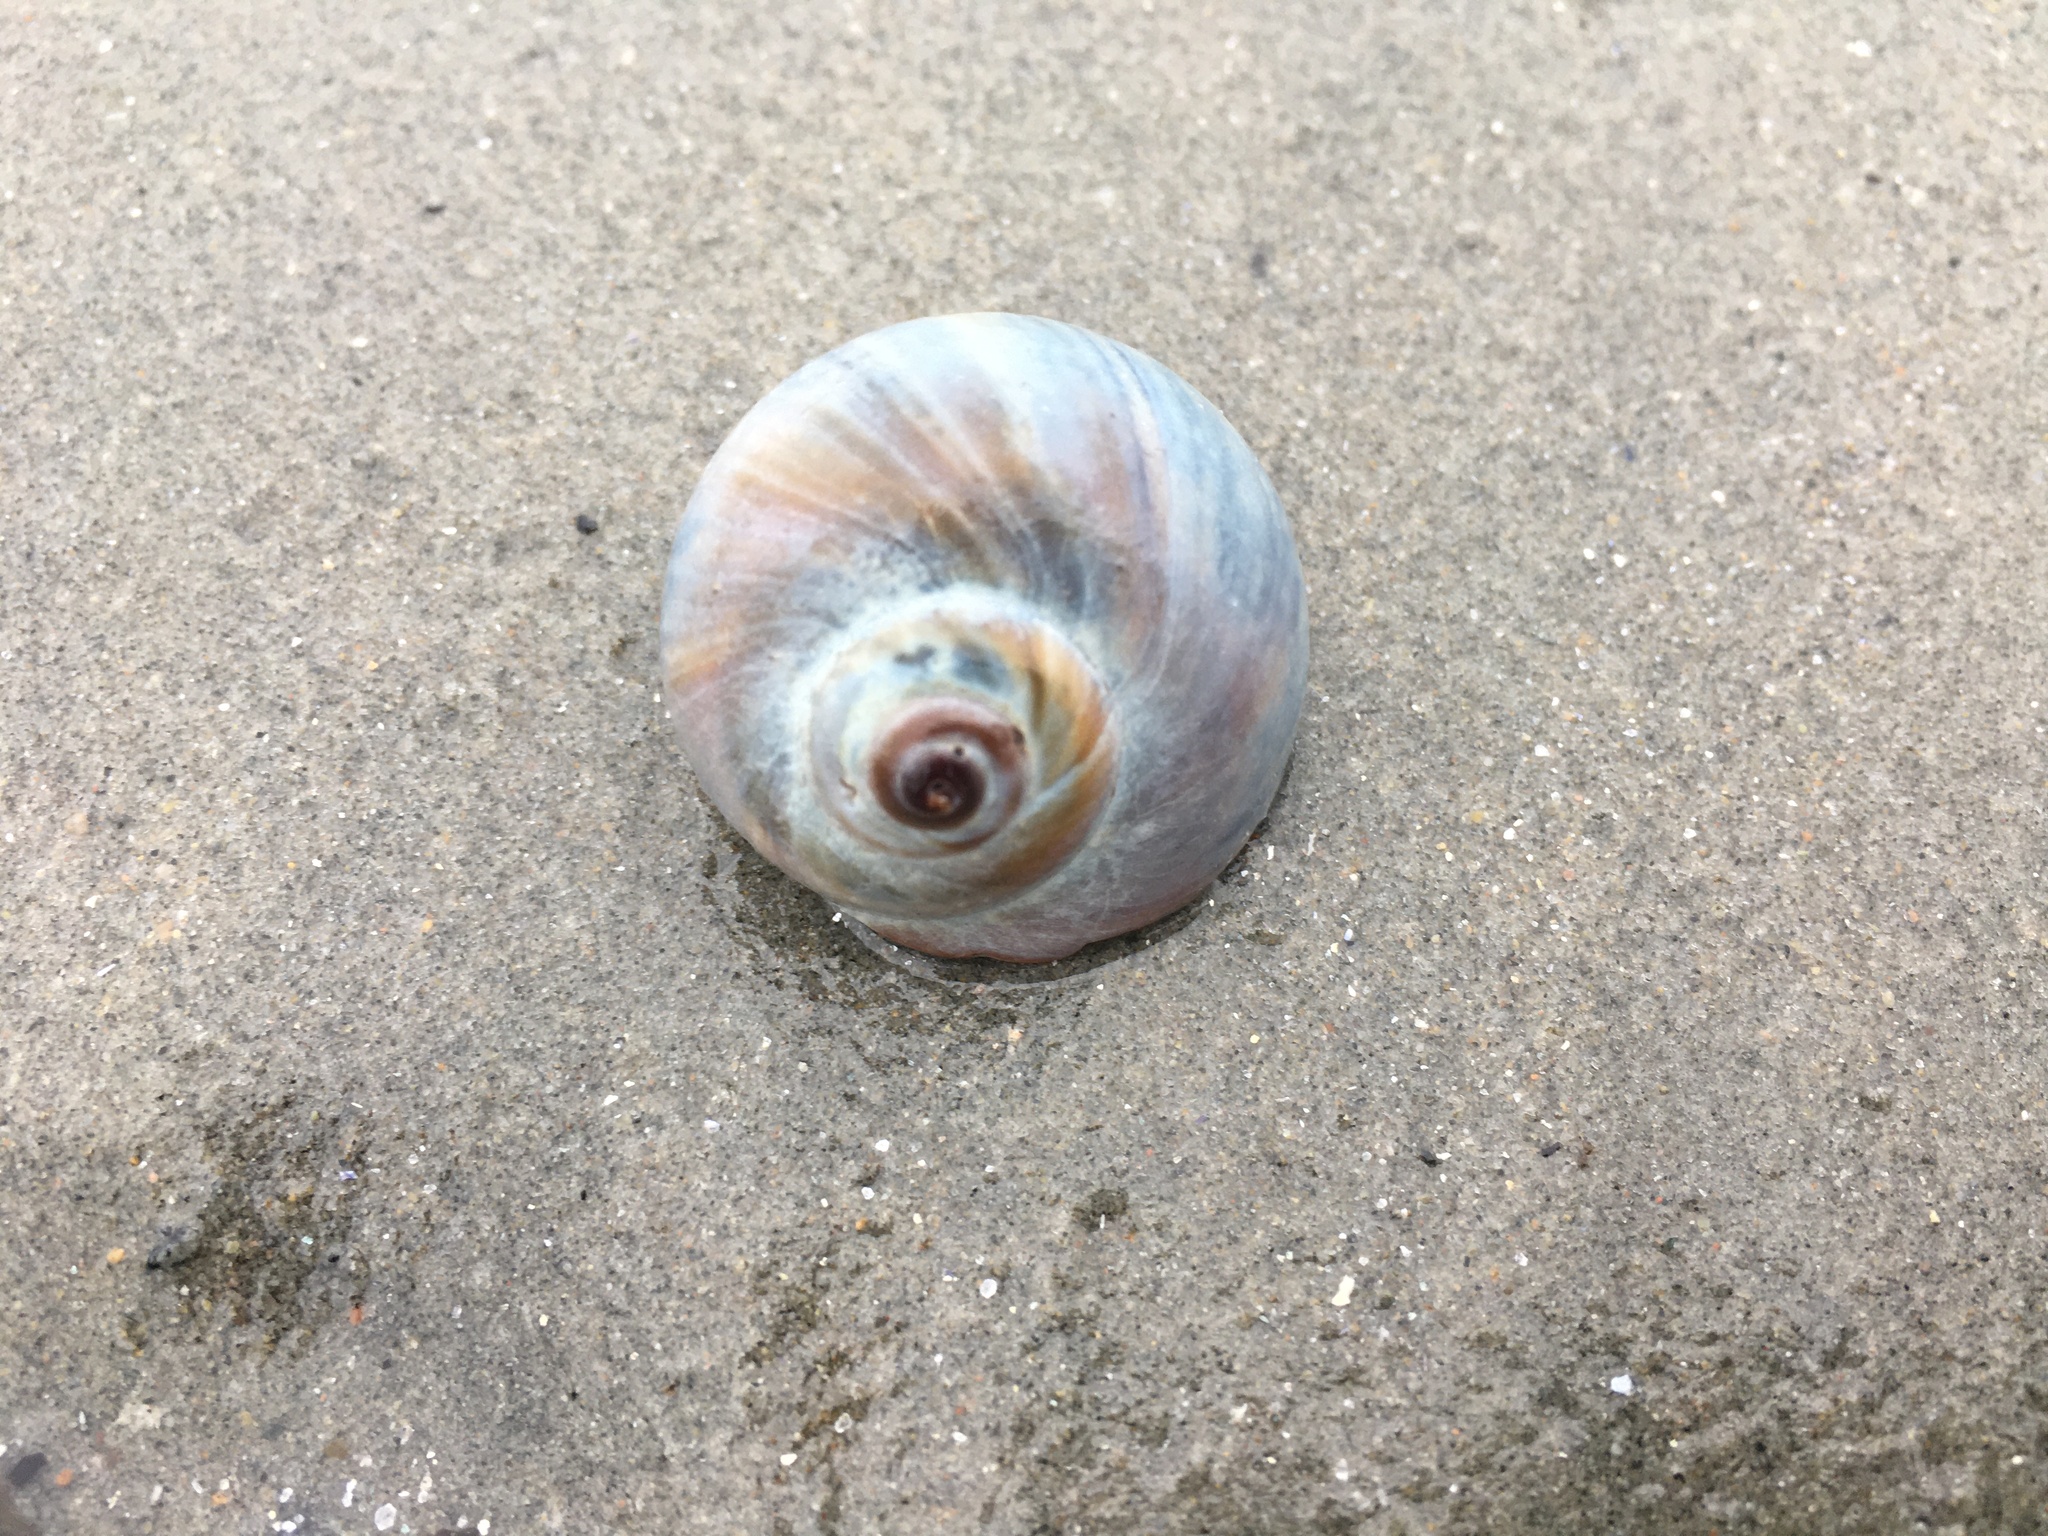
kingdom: Animalia
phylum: Mollusca
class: Gastropoda
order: Littorinimorpha
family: Naticidae
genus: Euspira
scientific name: Euspira heros
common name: Common northern moonsnail
